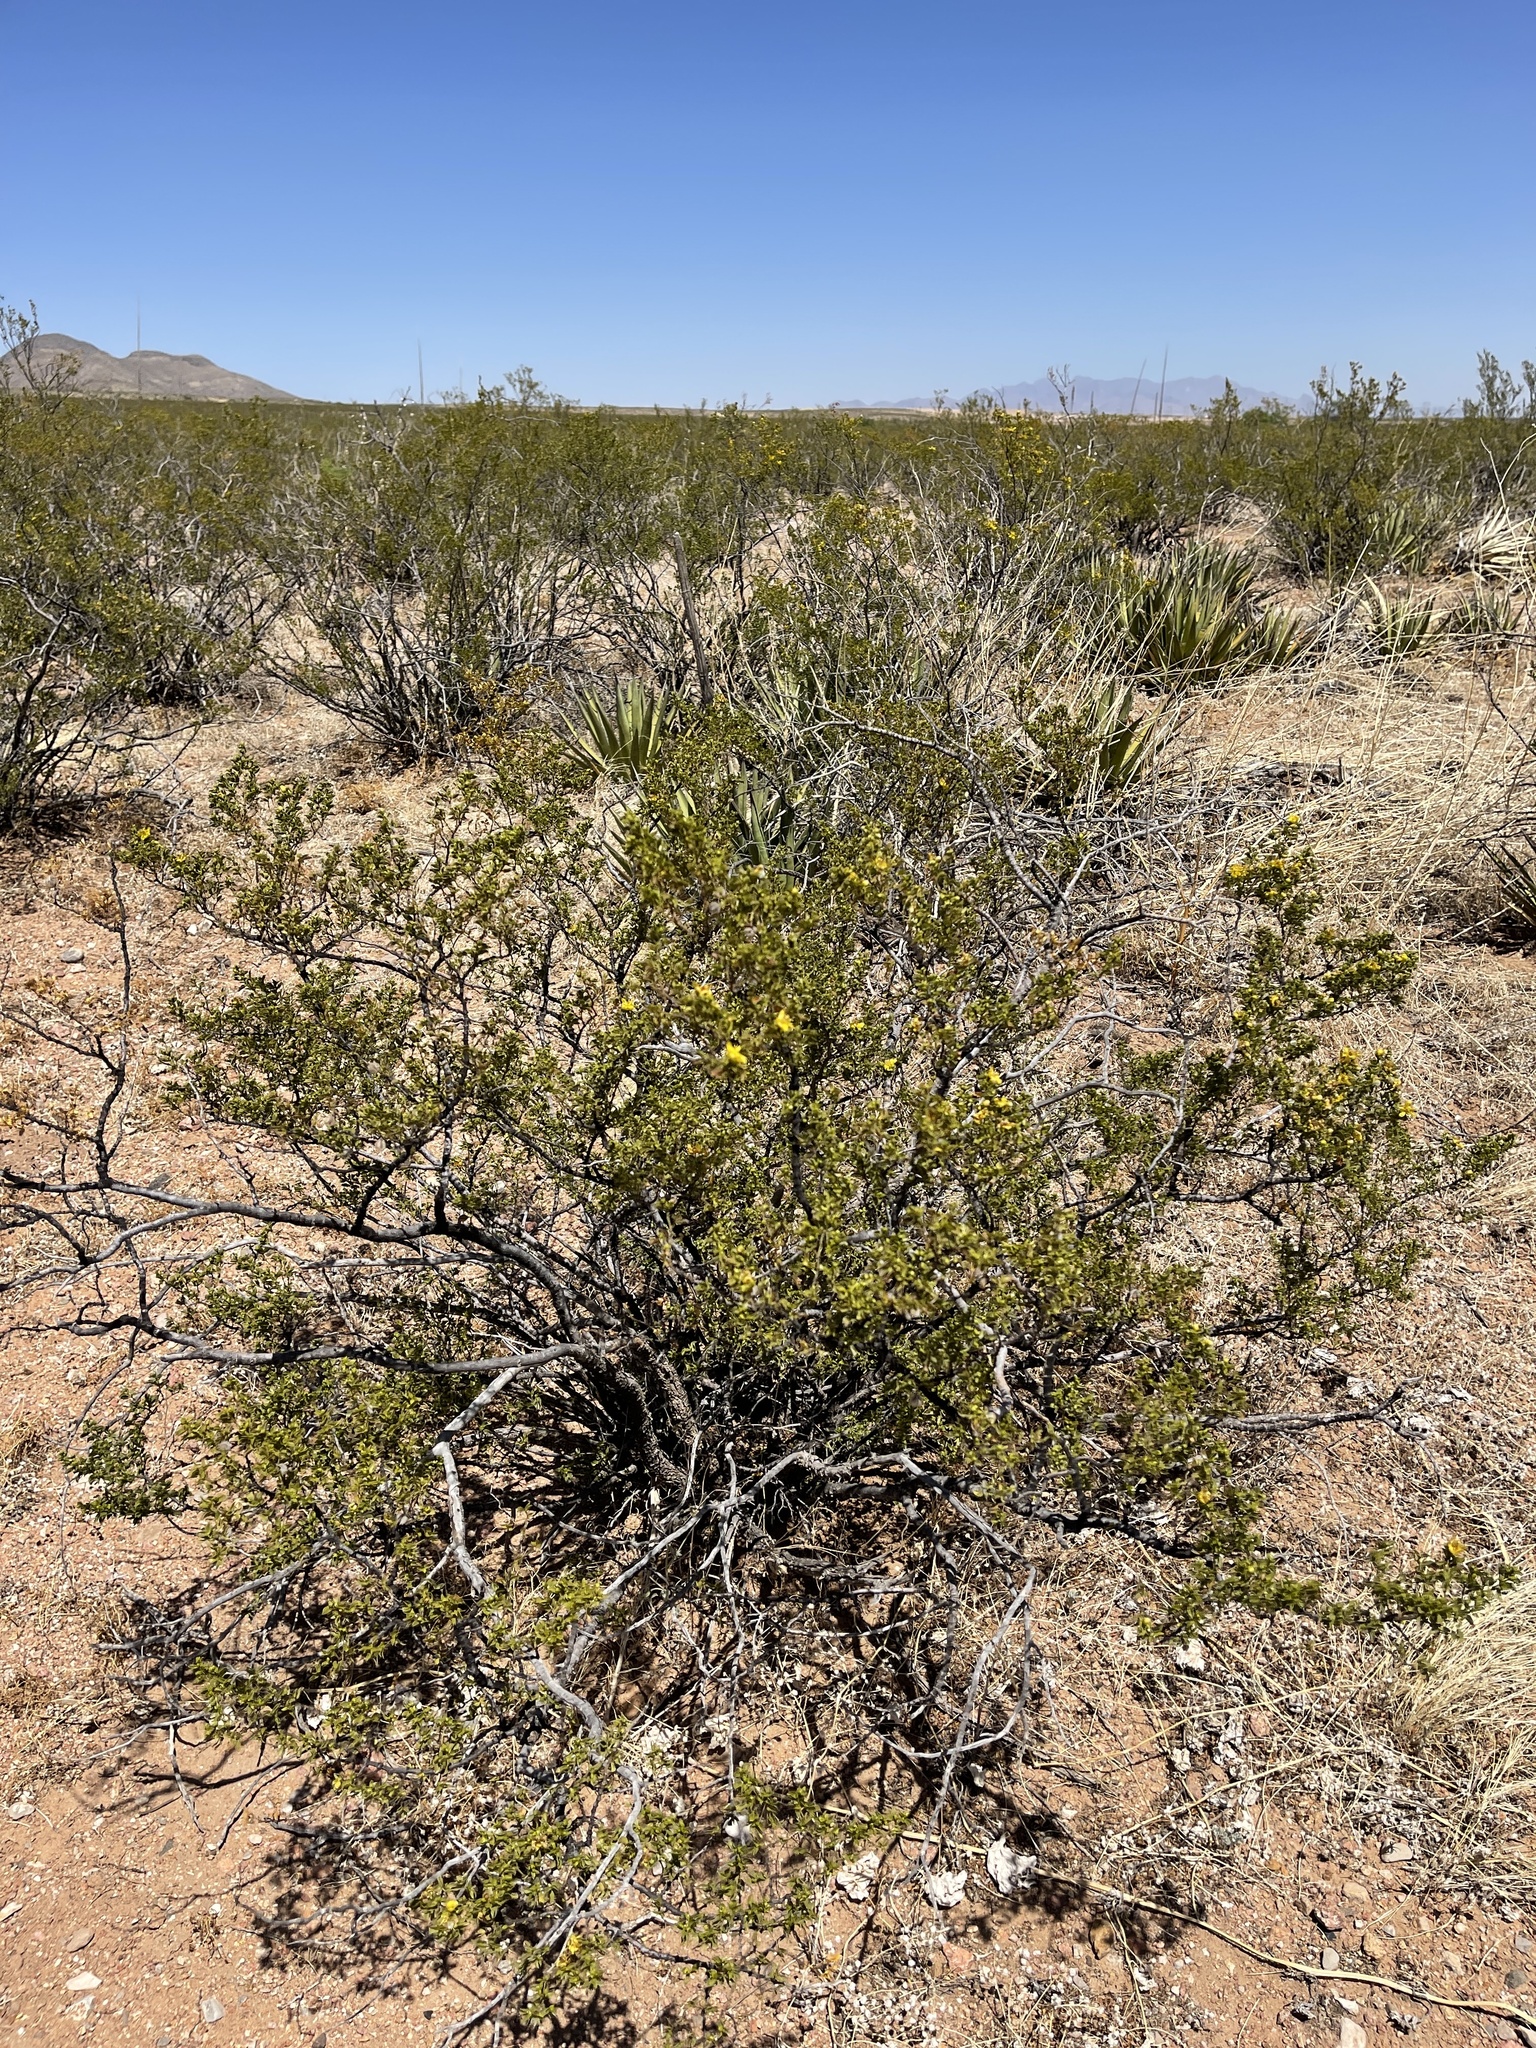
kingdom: Plantae
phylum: Tracheophyta
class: Magnoliopsida
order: Zygophyllales
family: Zygophyllaceae
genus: Larrea
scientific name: Larrea tridentata
